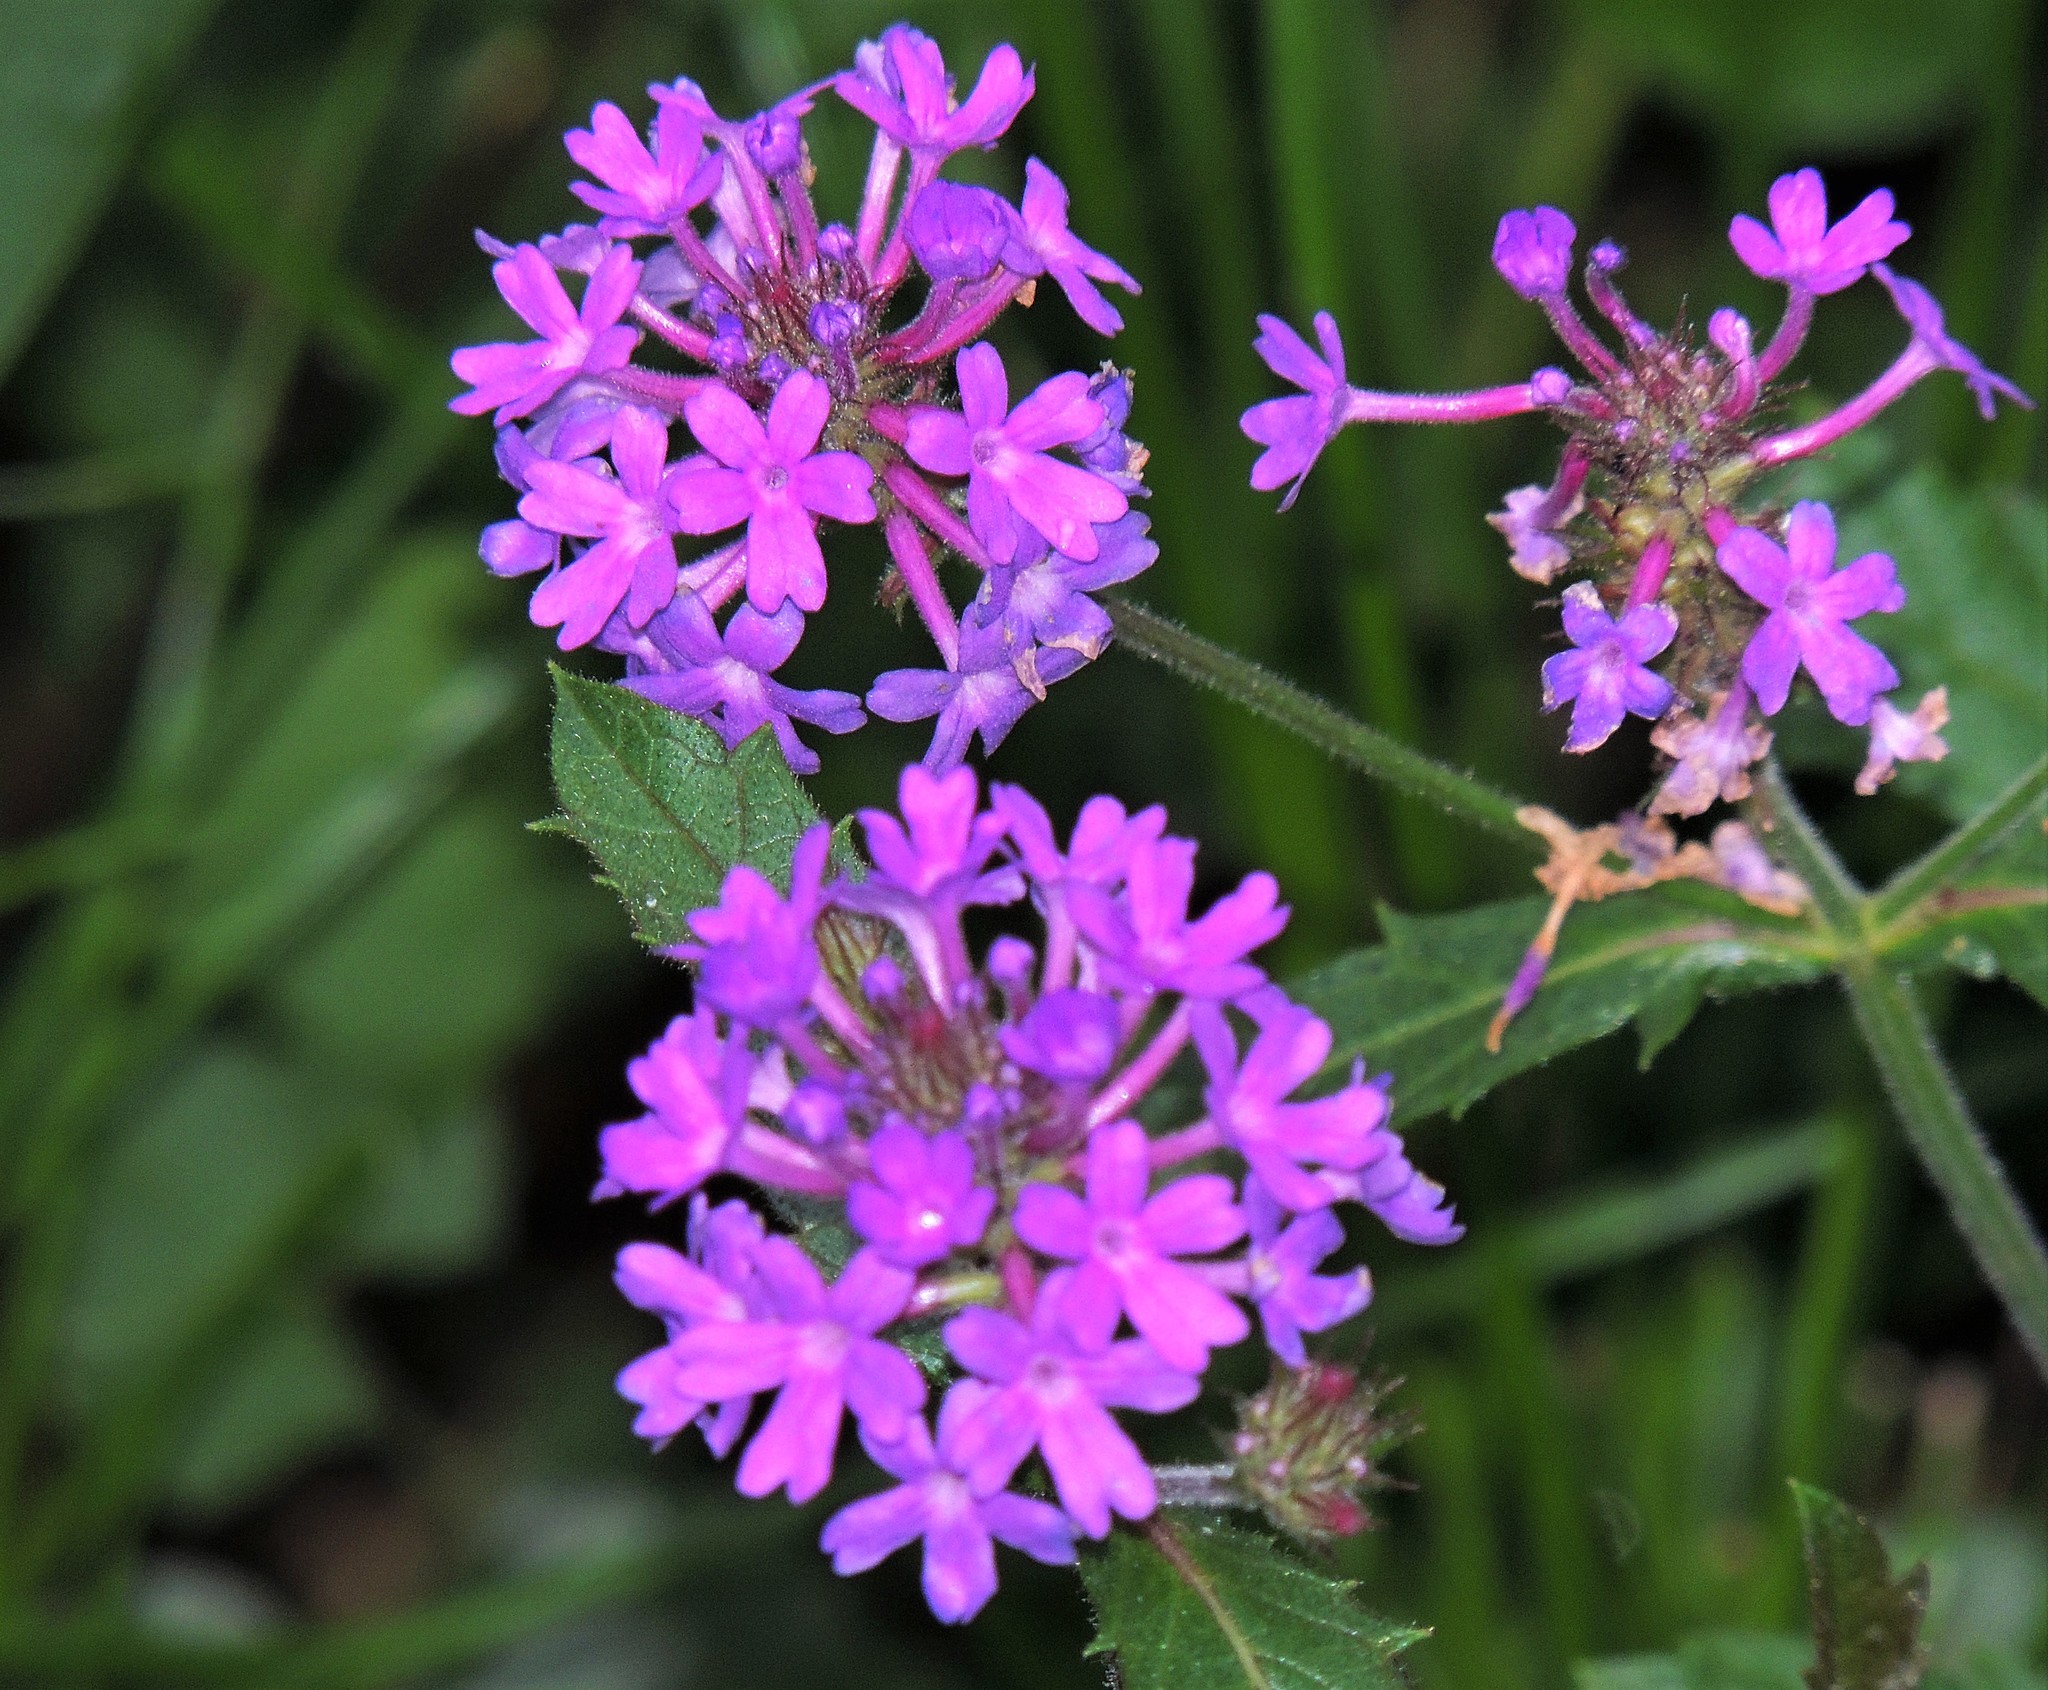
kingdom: Plantae
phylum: Tracheophyta
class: Magnoliopsida
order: Lamiales
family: Verbenaceae
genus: Verbena
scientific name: Verbena rigida
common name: Slender vervain
